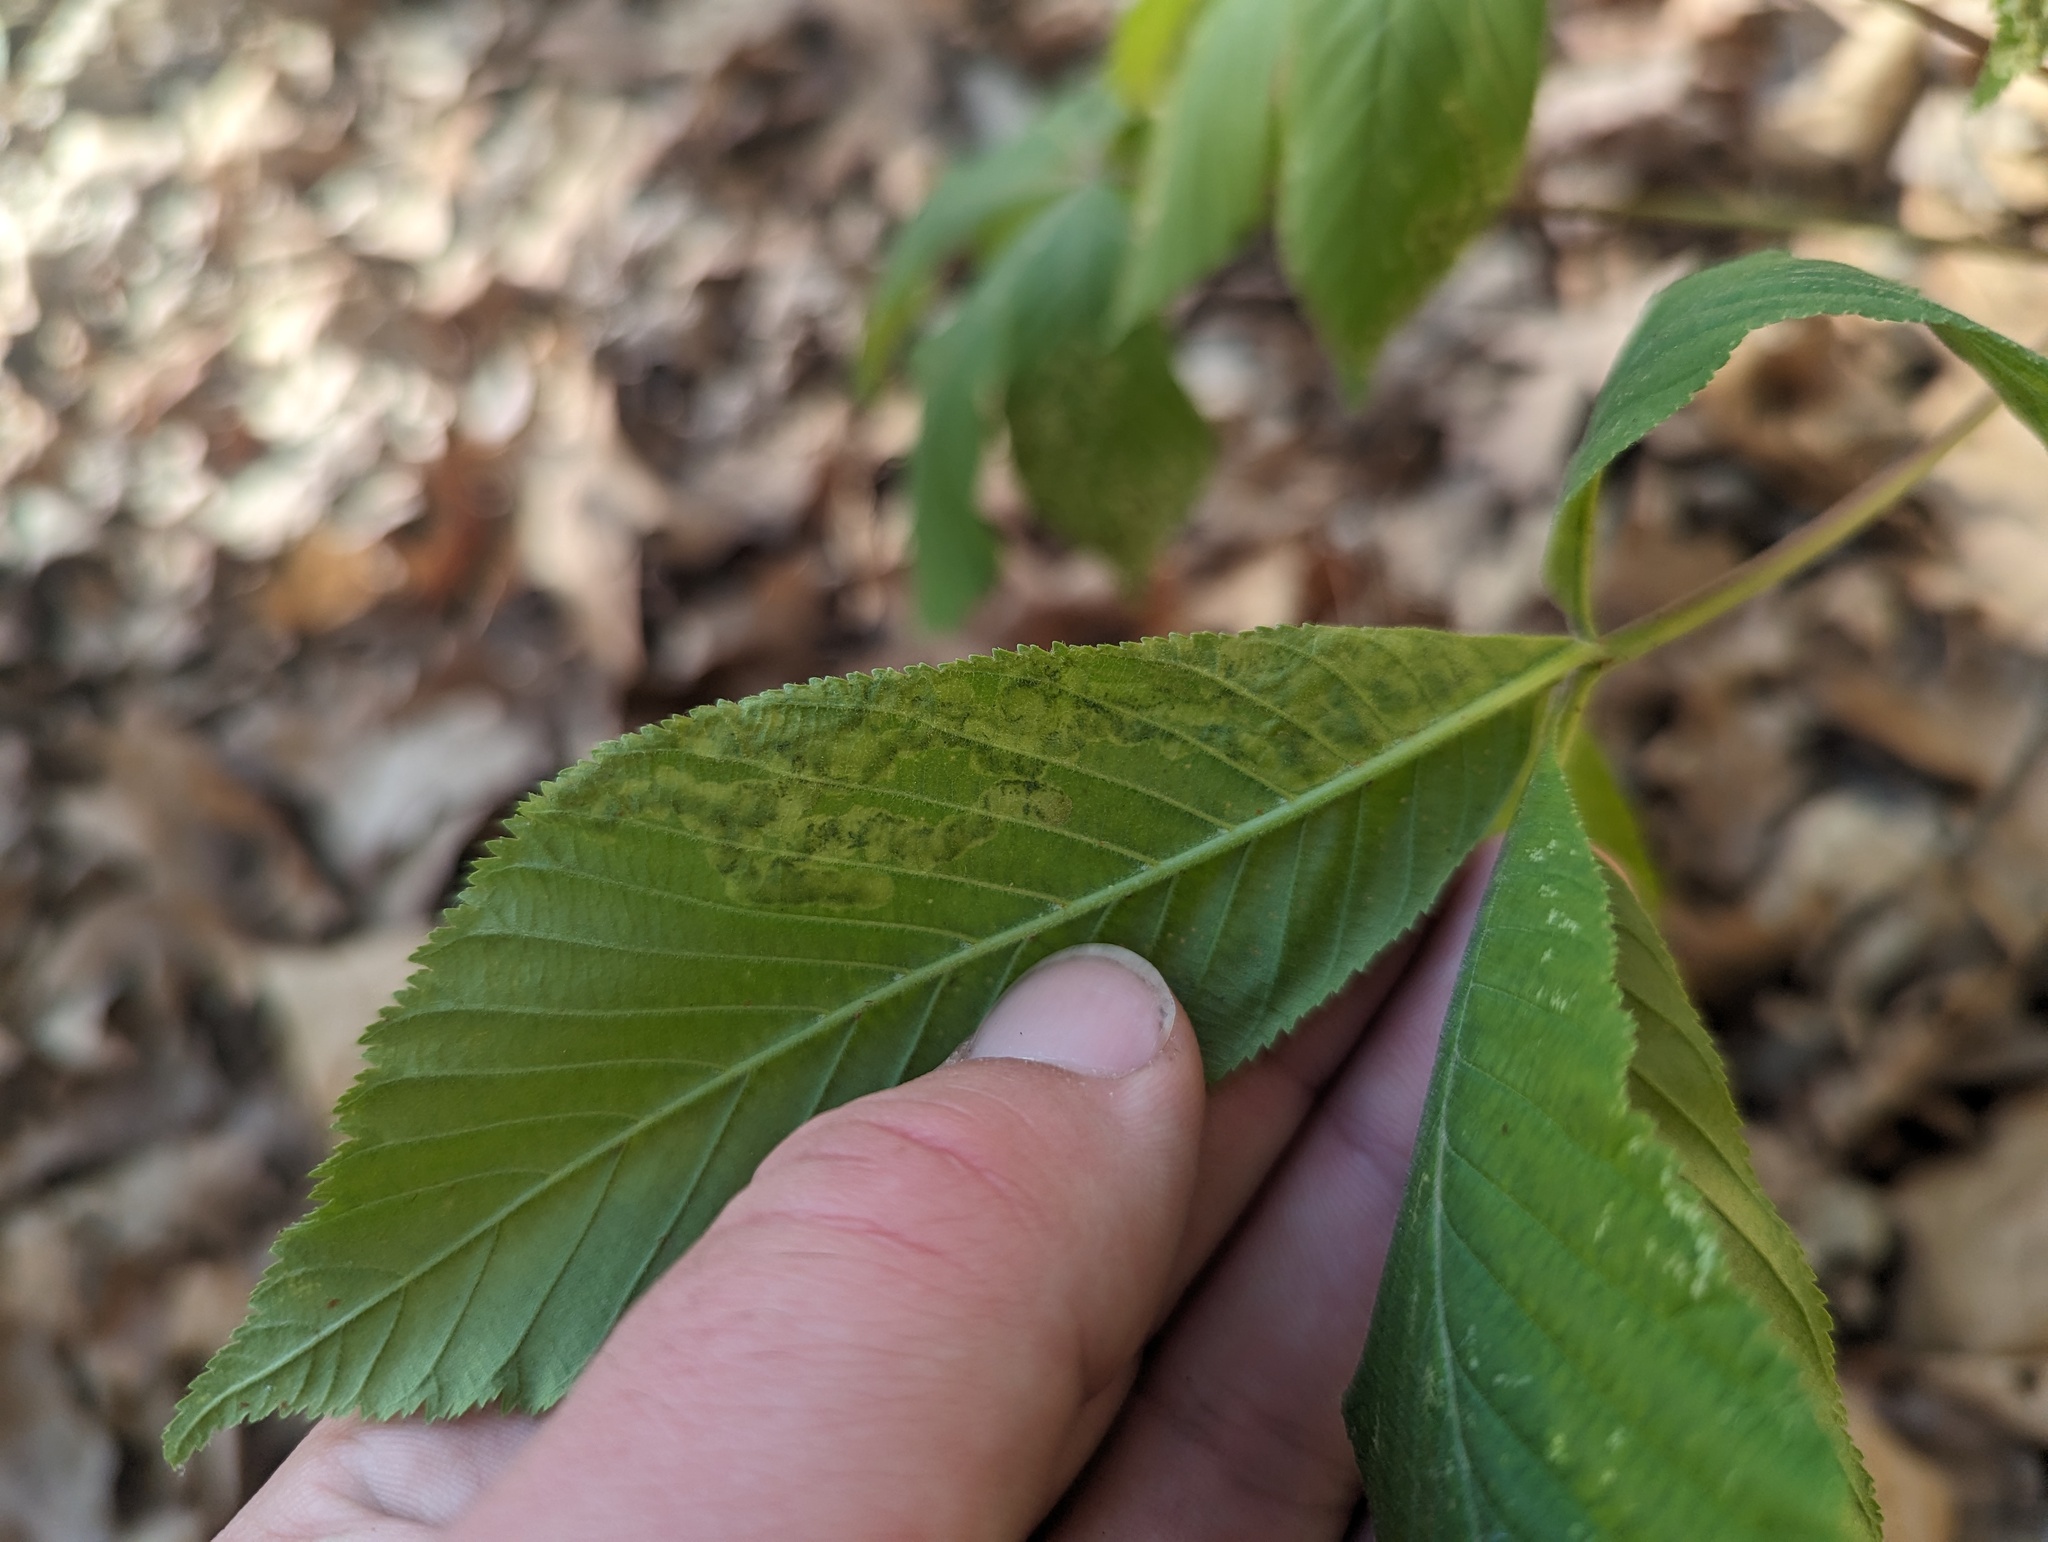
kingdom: Animalia
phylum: Arthropoda
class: Insecta
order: Diptera
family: Agromyzidae
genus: Phytomyza
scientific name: Phytomyza aesculi
